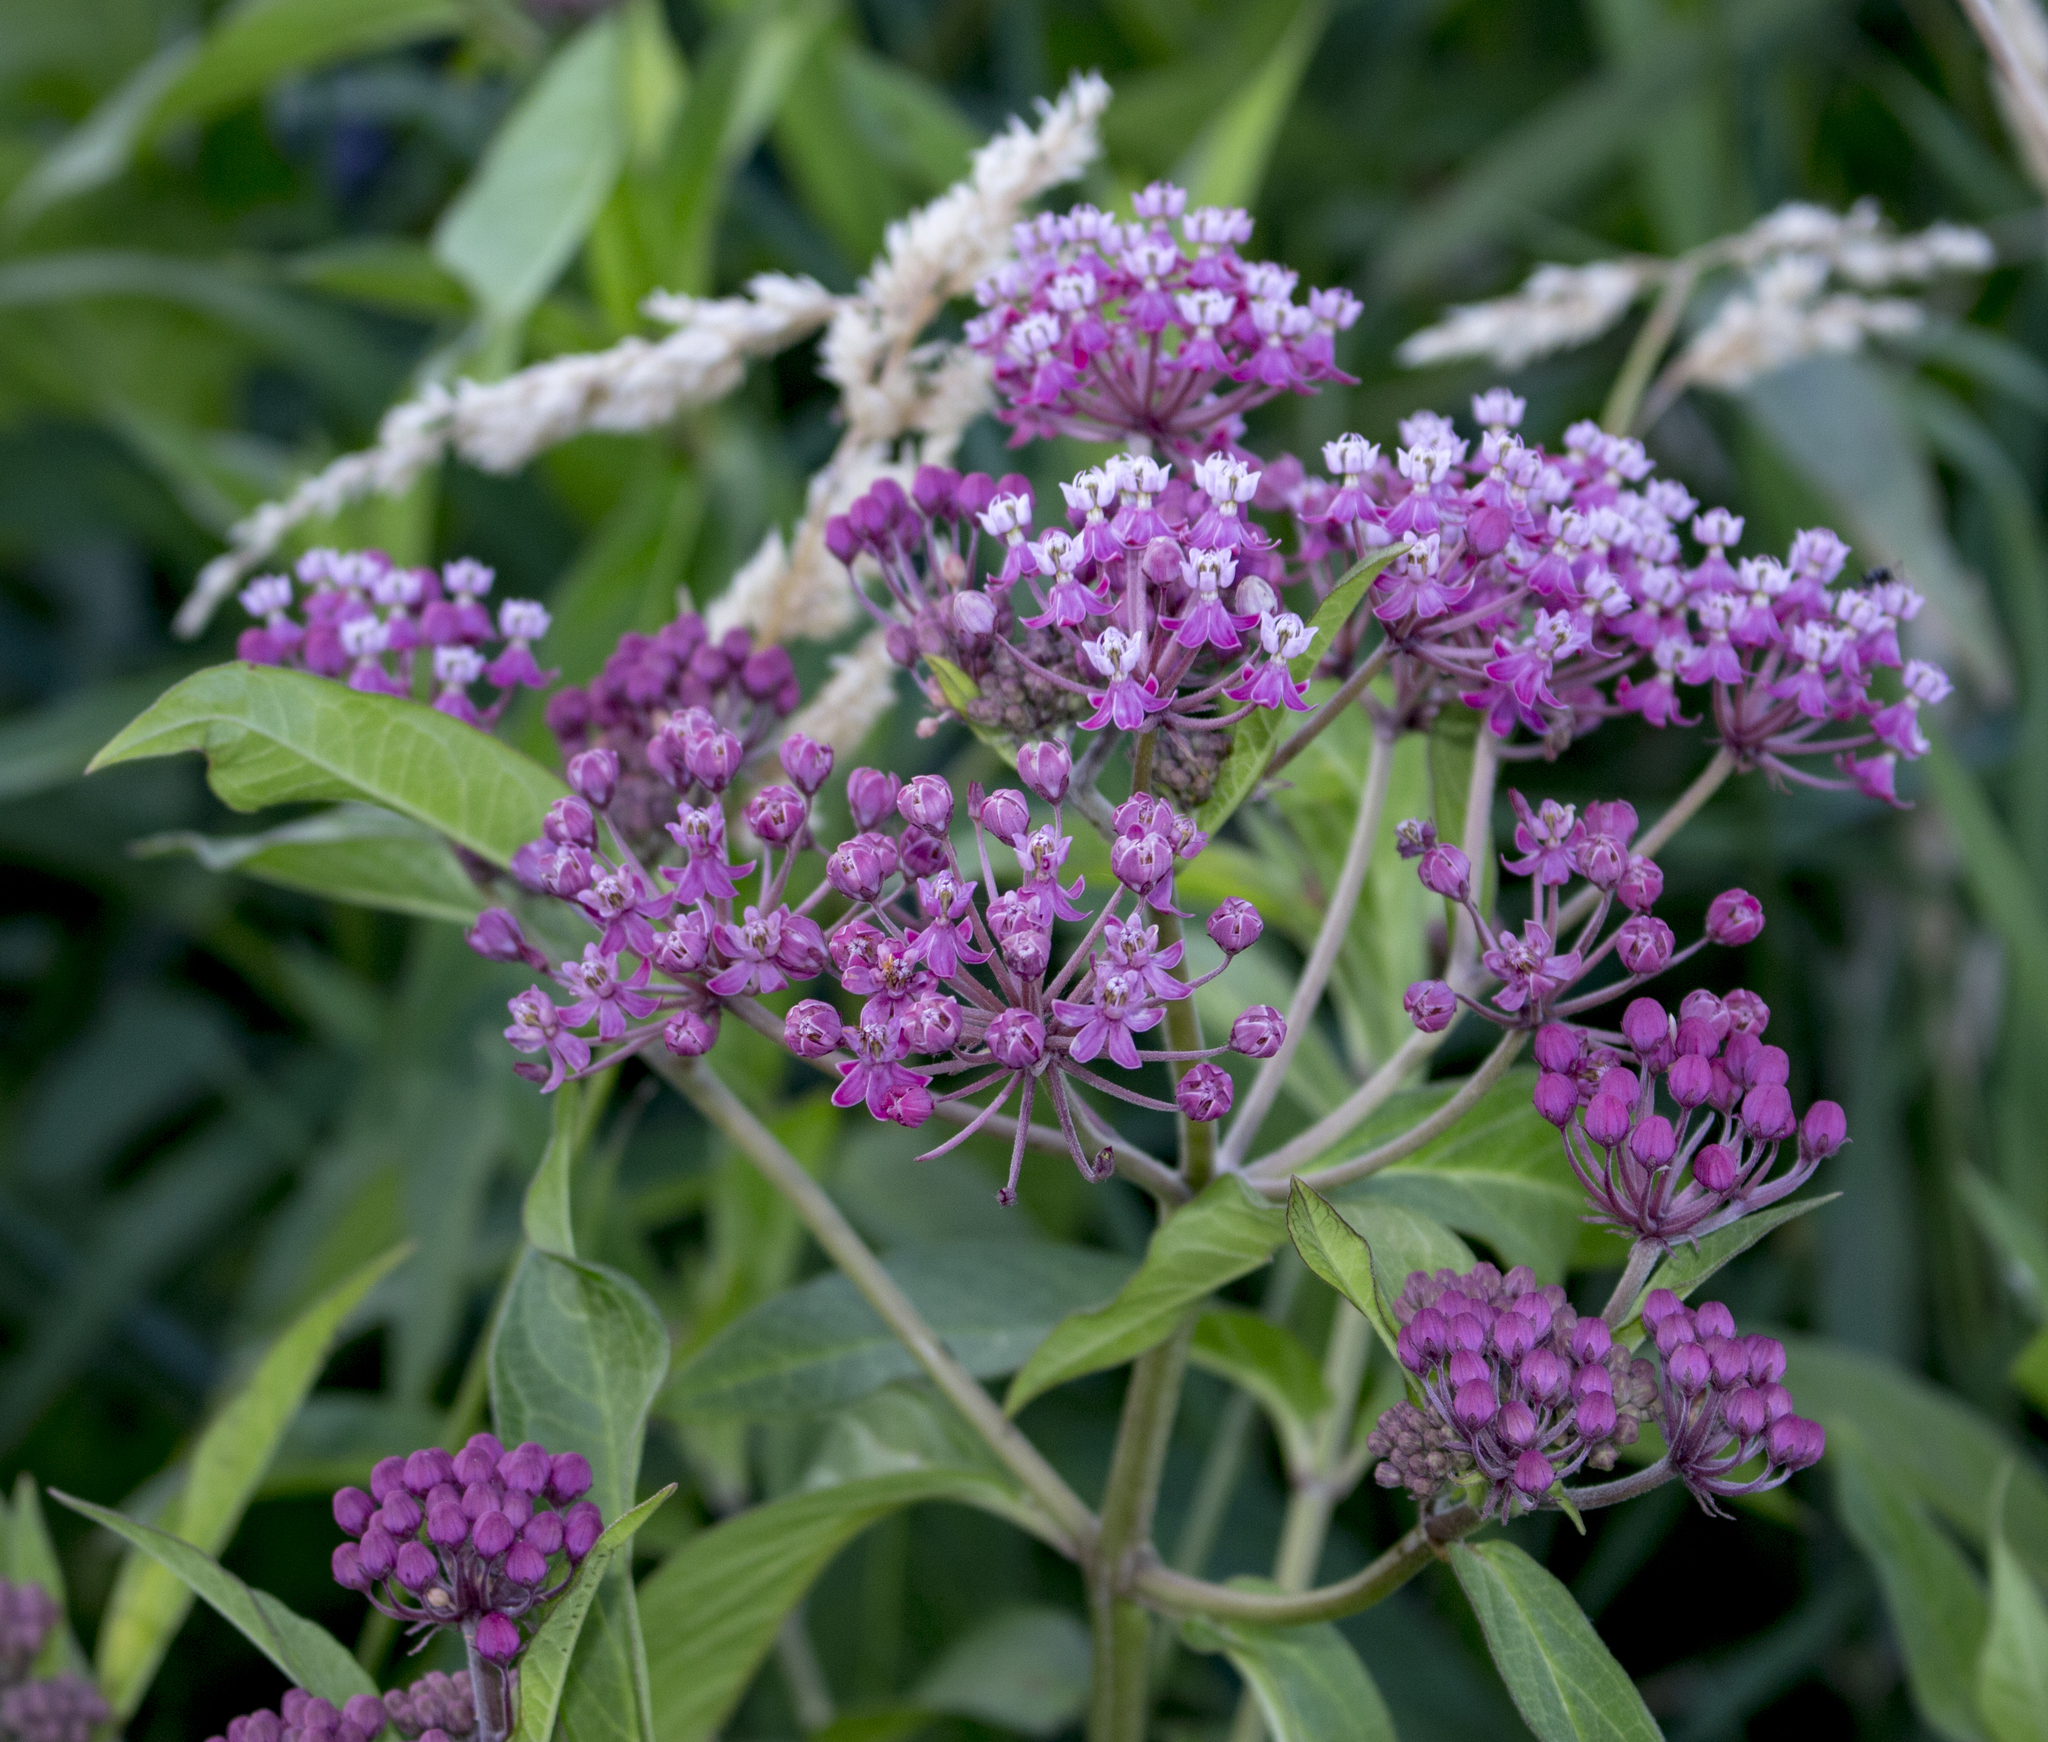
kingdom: Plantae
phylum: Tracheophyta
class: Magnoliopsida
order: Gentianales
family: Apocynaceae
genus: Asclepias
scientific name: Asclepias incarnata
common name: Swamp milkweed
